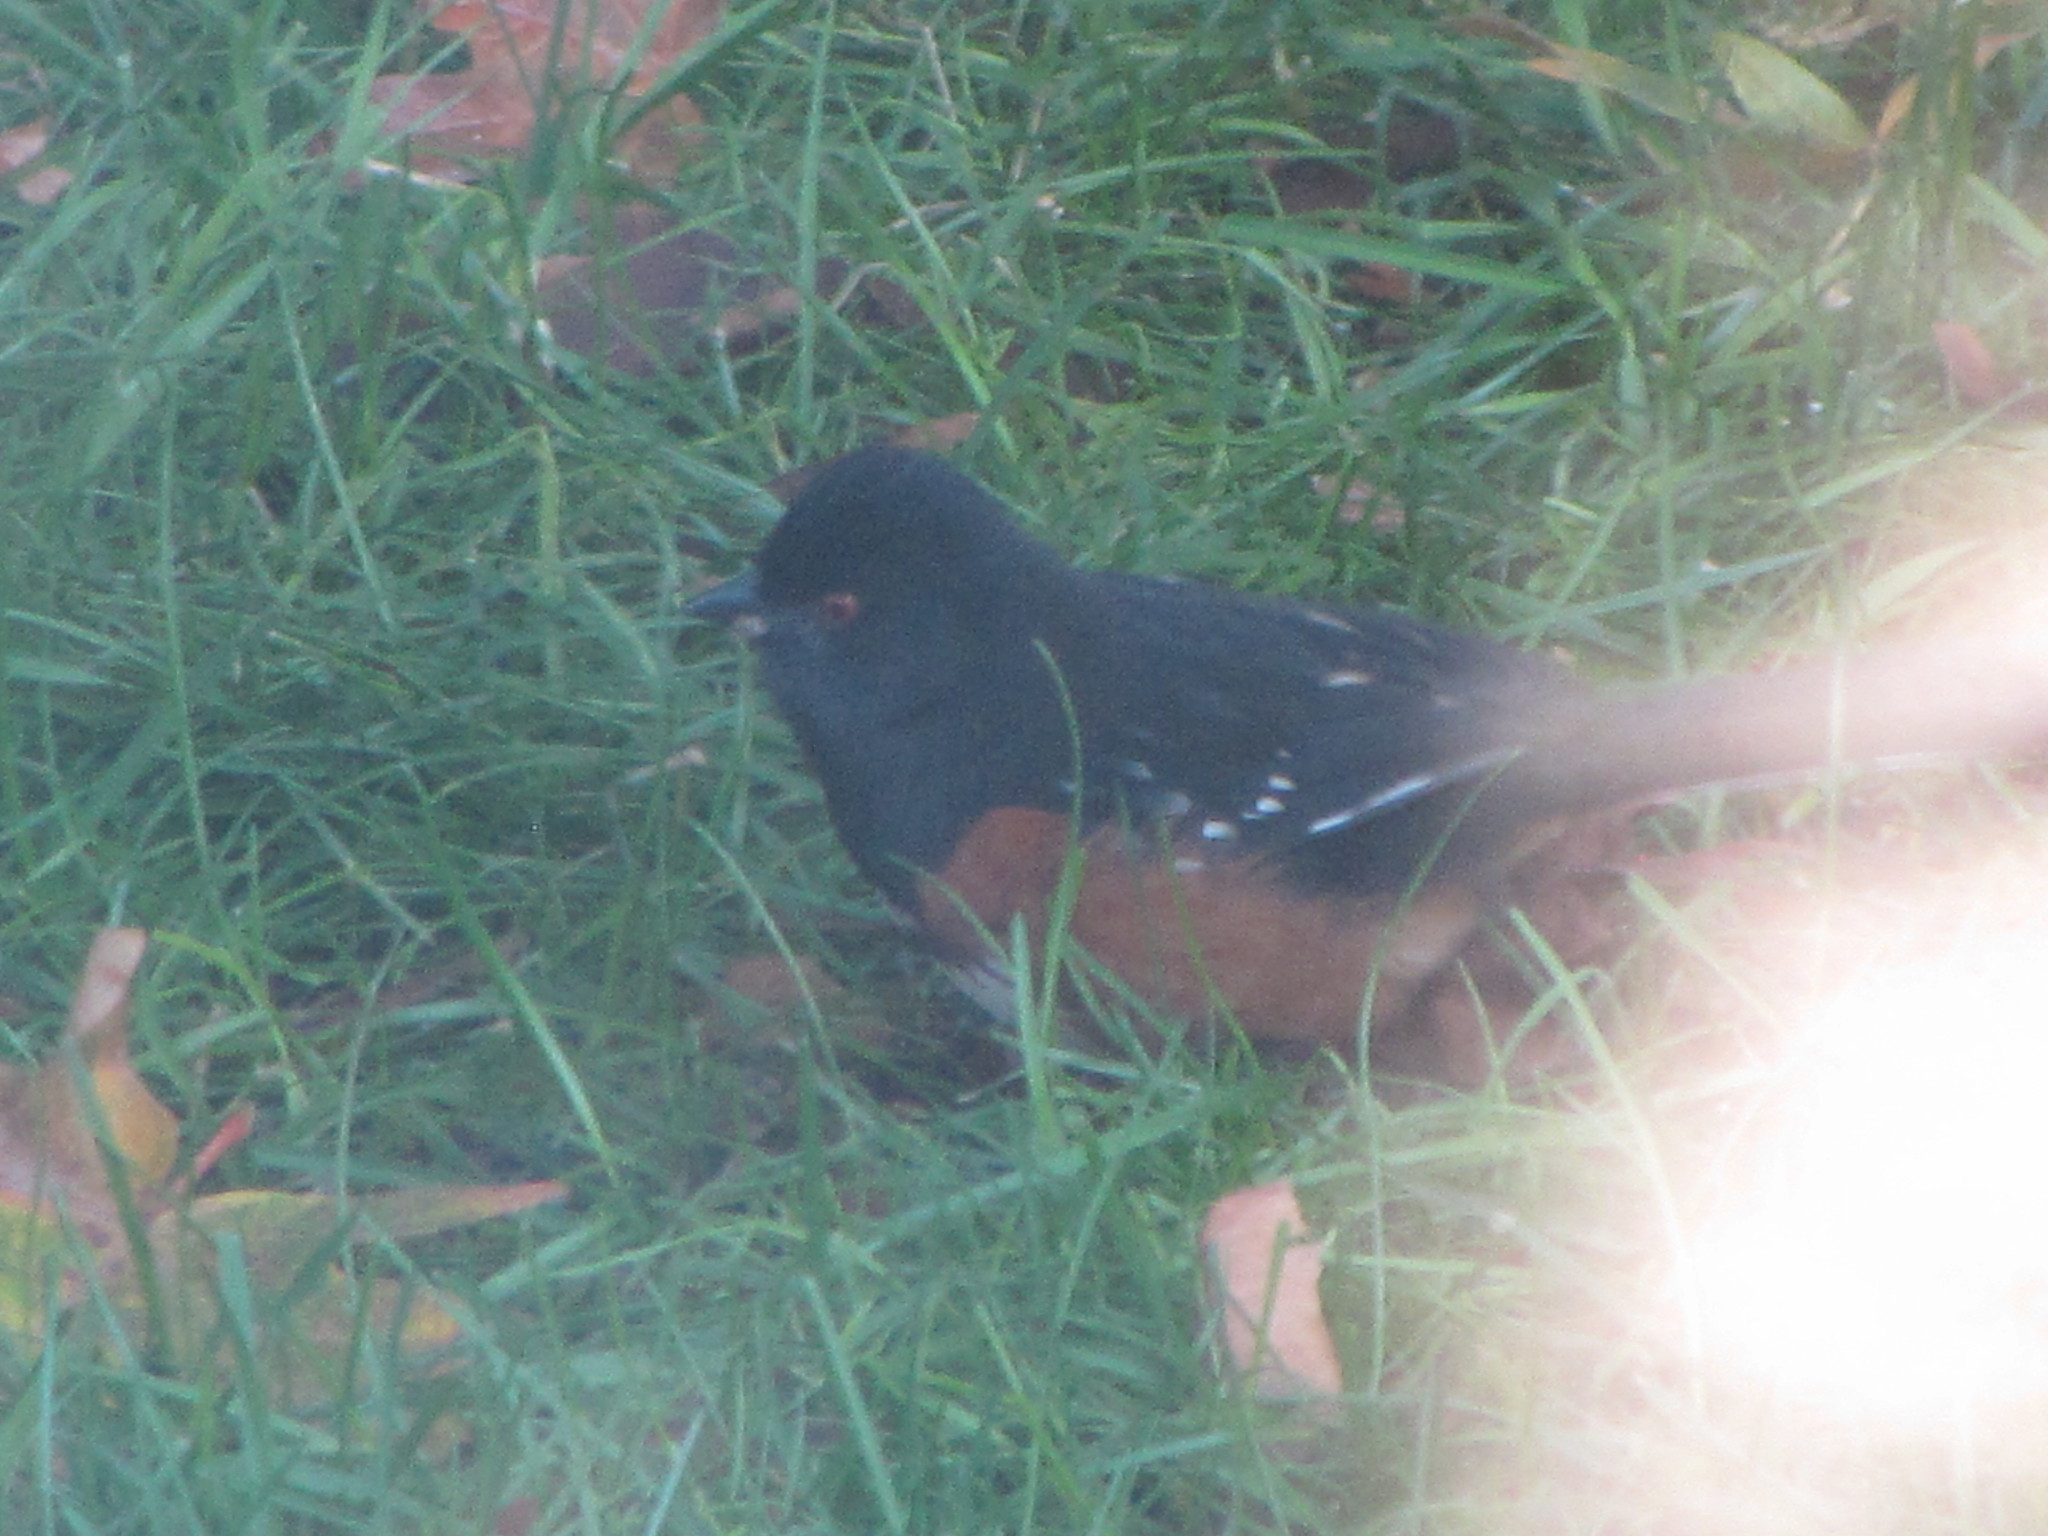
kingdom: Animalia
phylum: Chordata
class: Aves
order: Passeriformes
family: Passerellidae
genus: Pipilo
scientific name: Pipilo maculatus
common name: Spotted towhee
